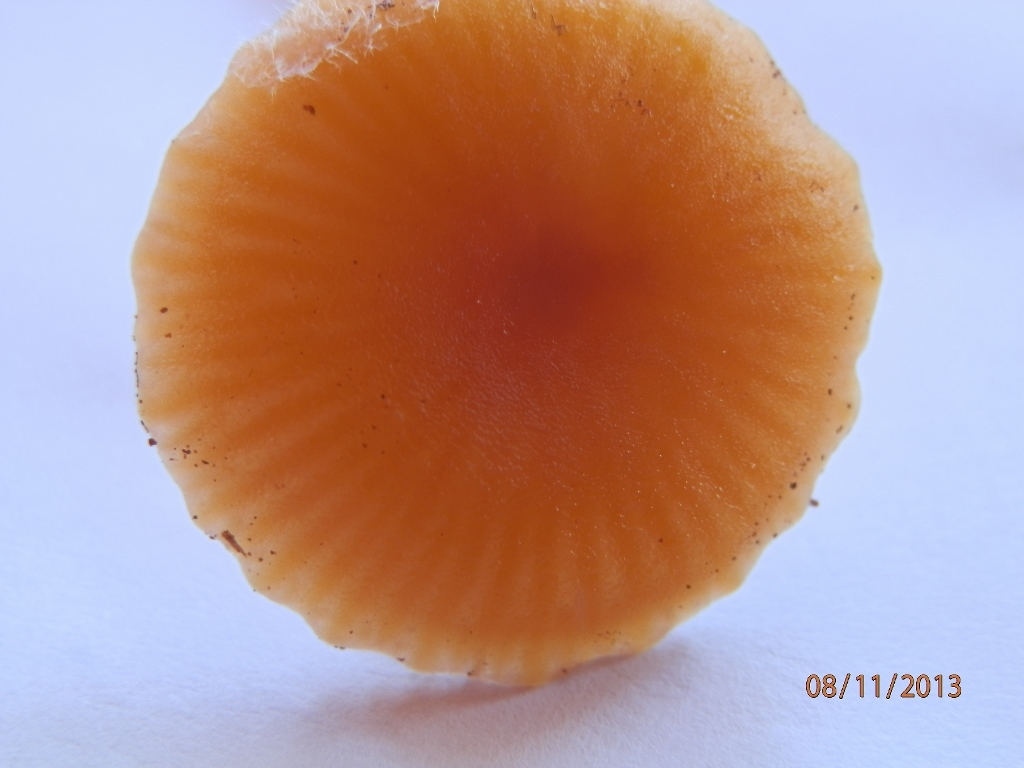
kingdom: Fungi
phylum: Basidiomycota
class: Agaricomycetes
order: Agaricales
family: Hygrophoraceae
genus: Gliophorus
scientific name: Gliophorus laetus
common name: Heath waxcap
